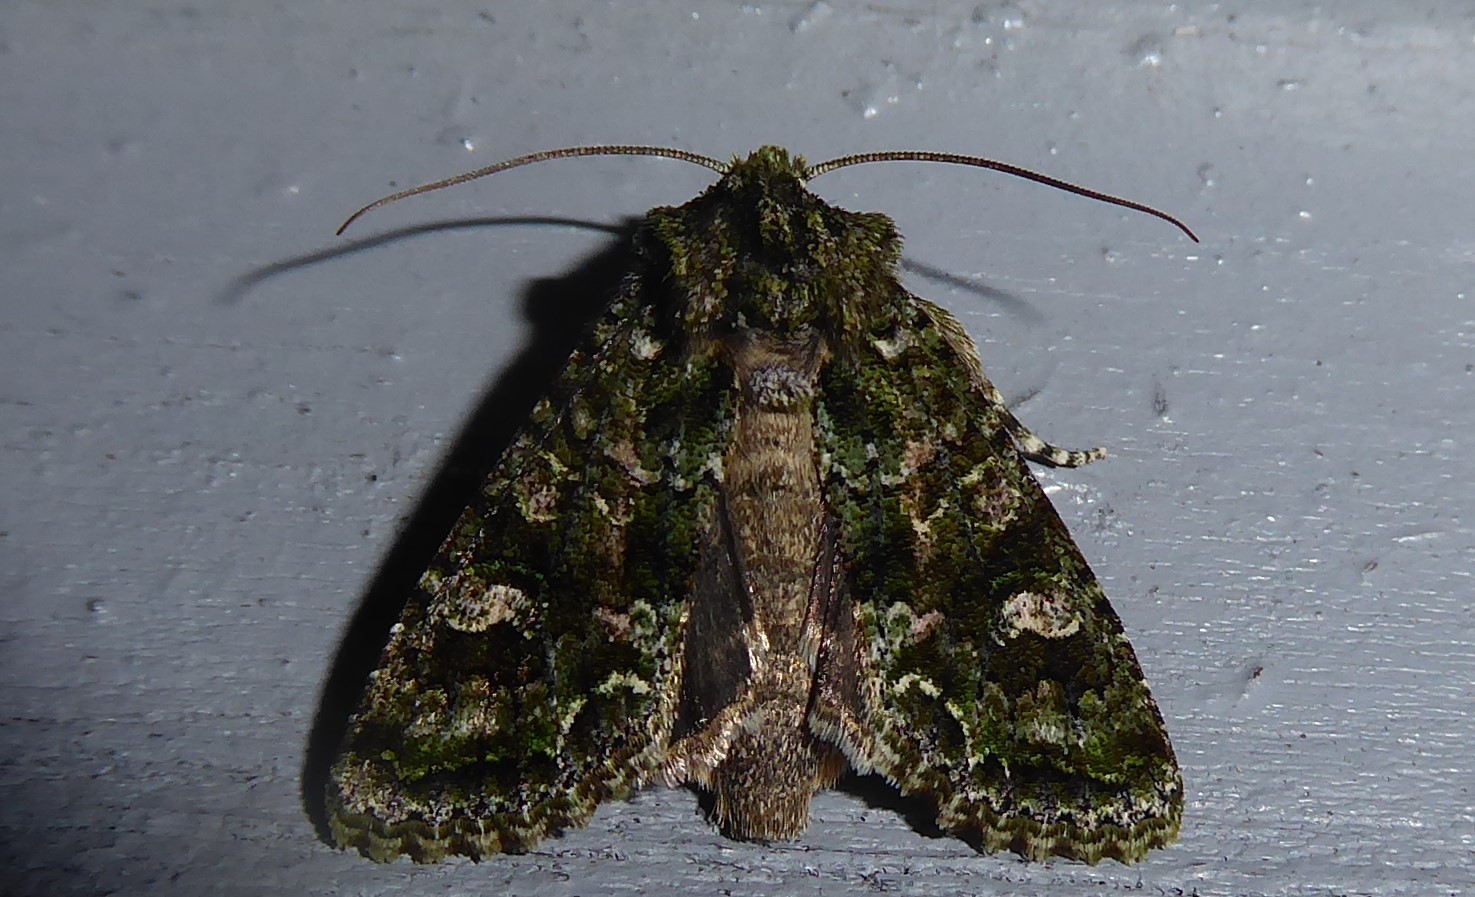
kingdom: Animalia
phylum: Arthropoda
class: Insecta
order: Lepidoptera
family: Noctuidae
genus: Ichneutica
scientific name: Ichneutica
